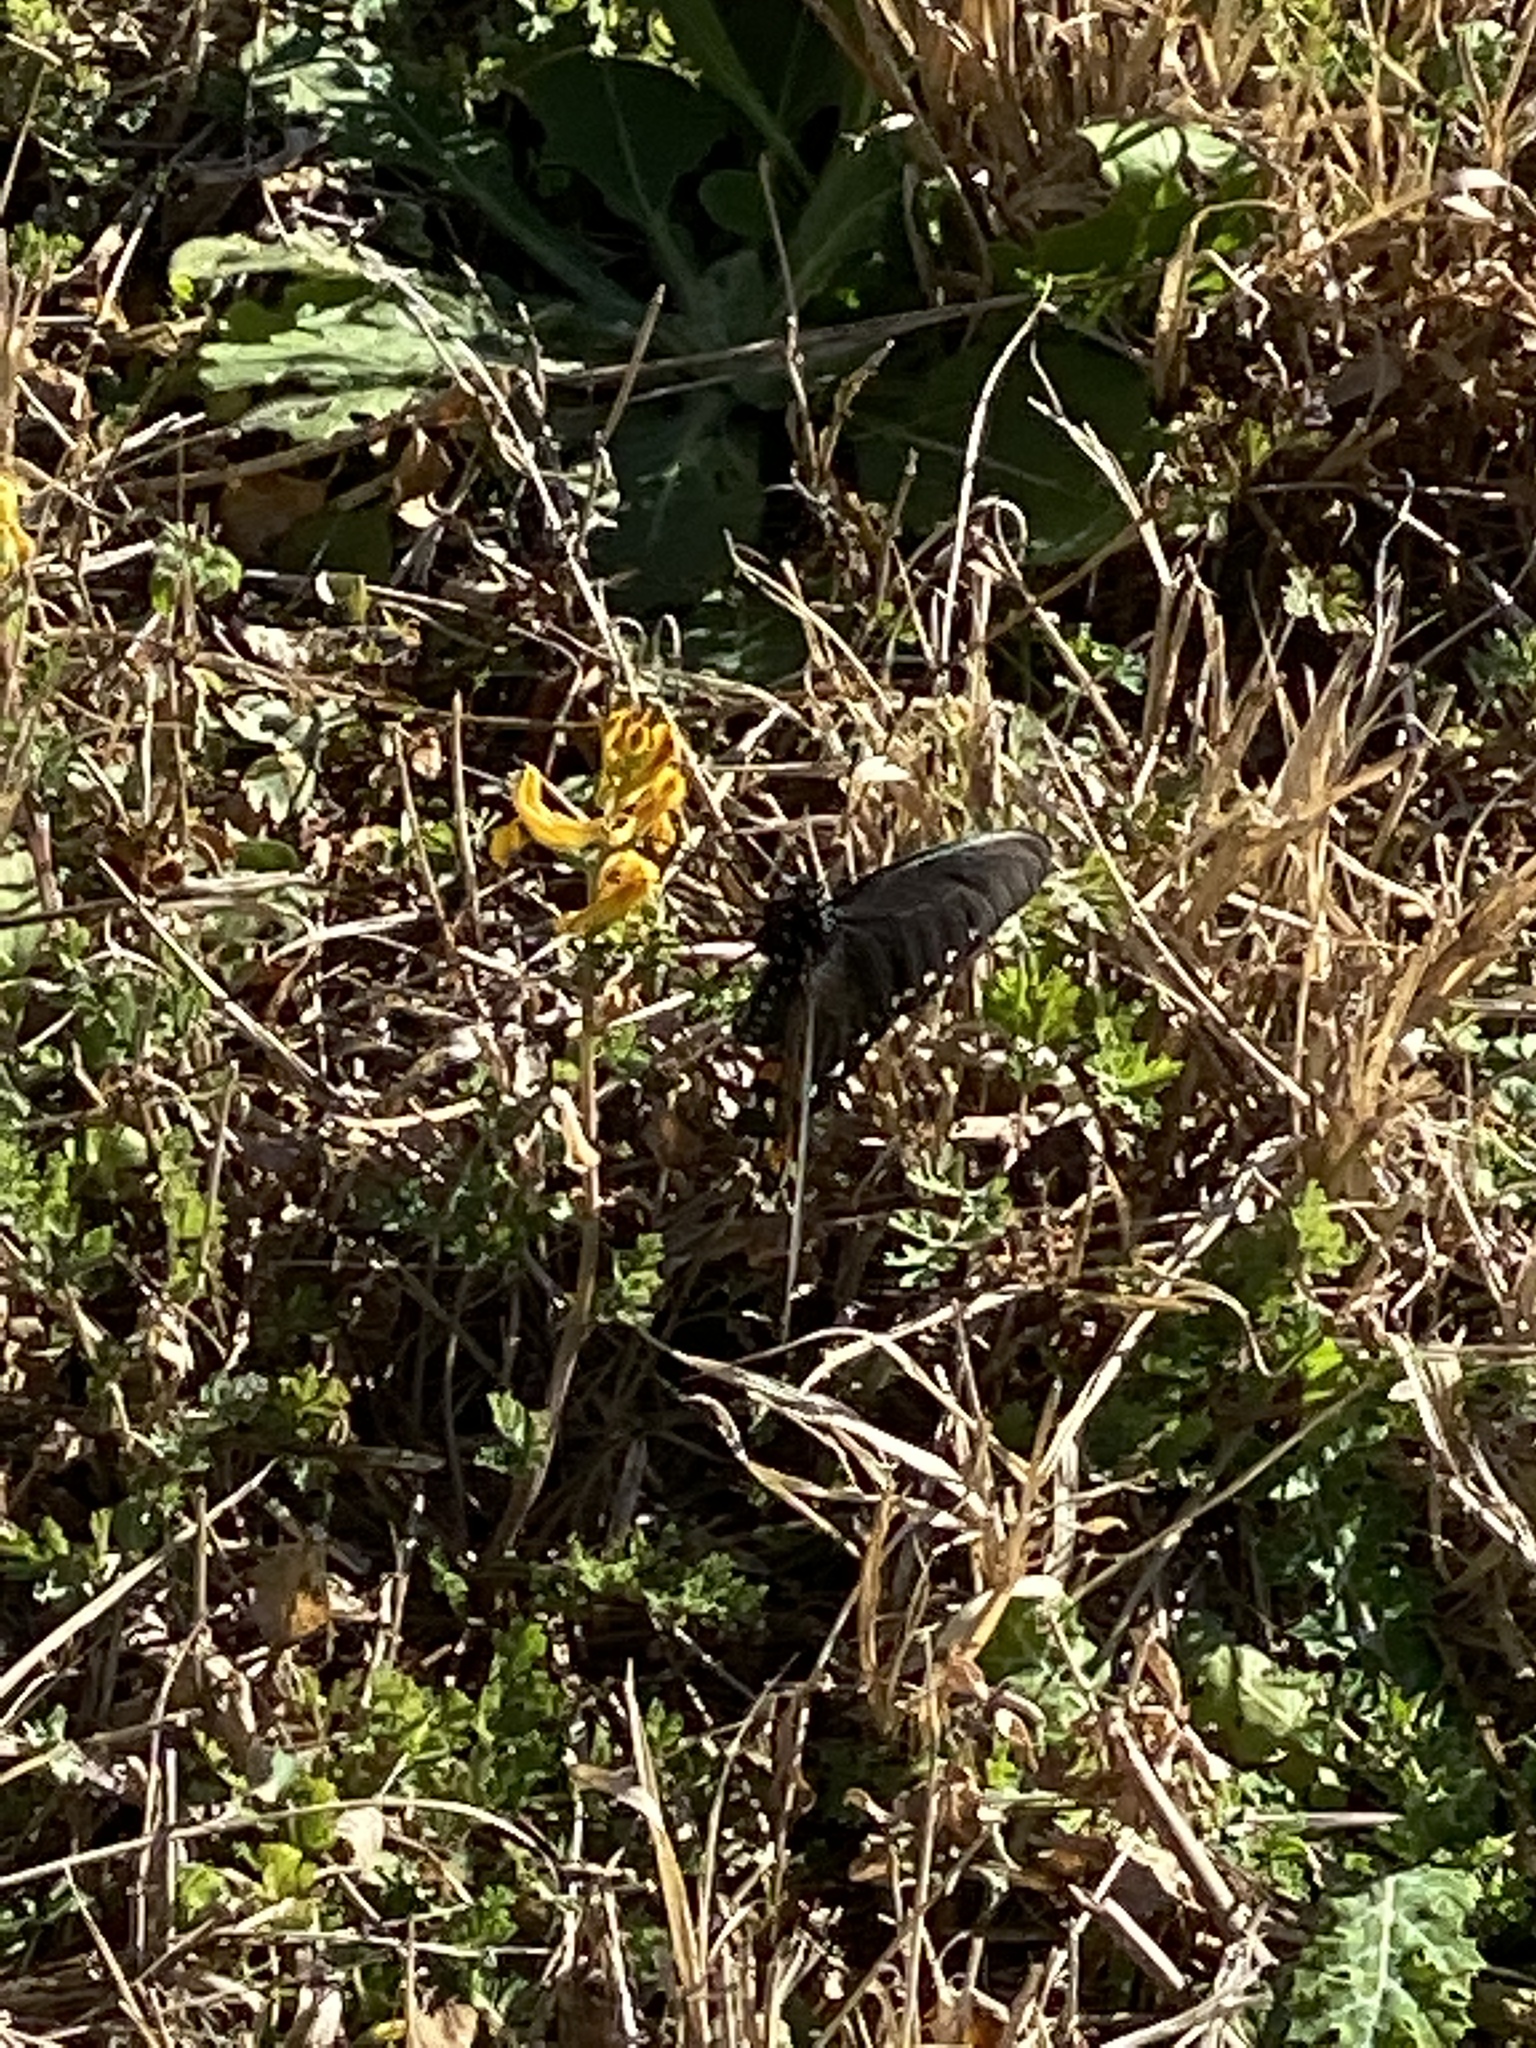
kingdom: Animalia
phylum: Arthropoda
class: Insecta
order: Lepidoptera
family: Papilionidae
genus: Battus
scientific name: Battus philenor
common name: Pipevine swallowtail
